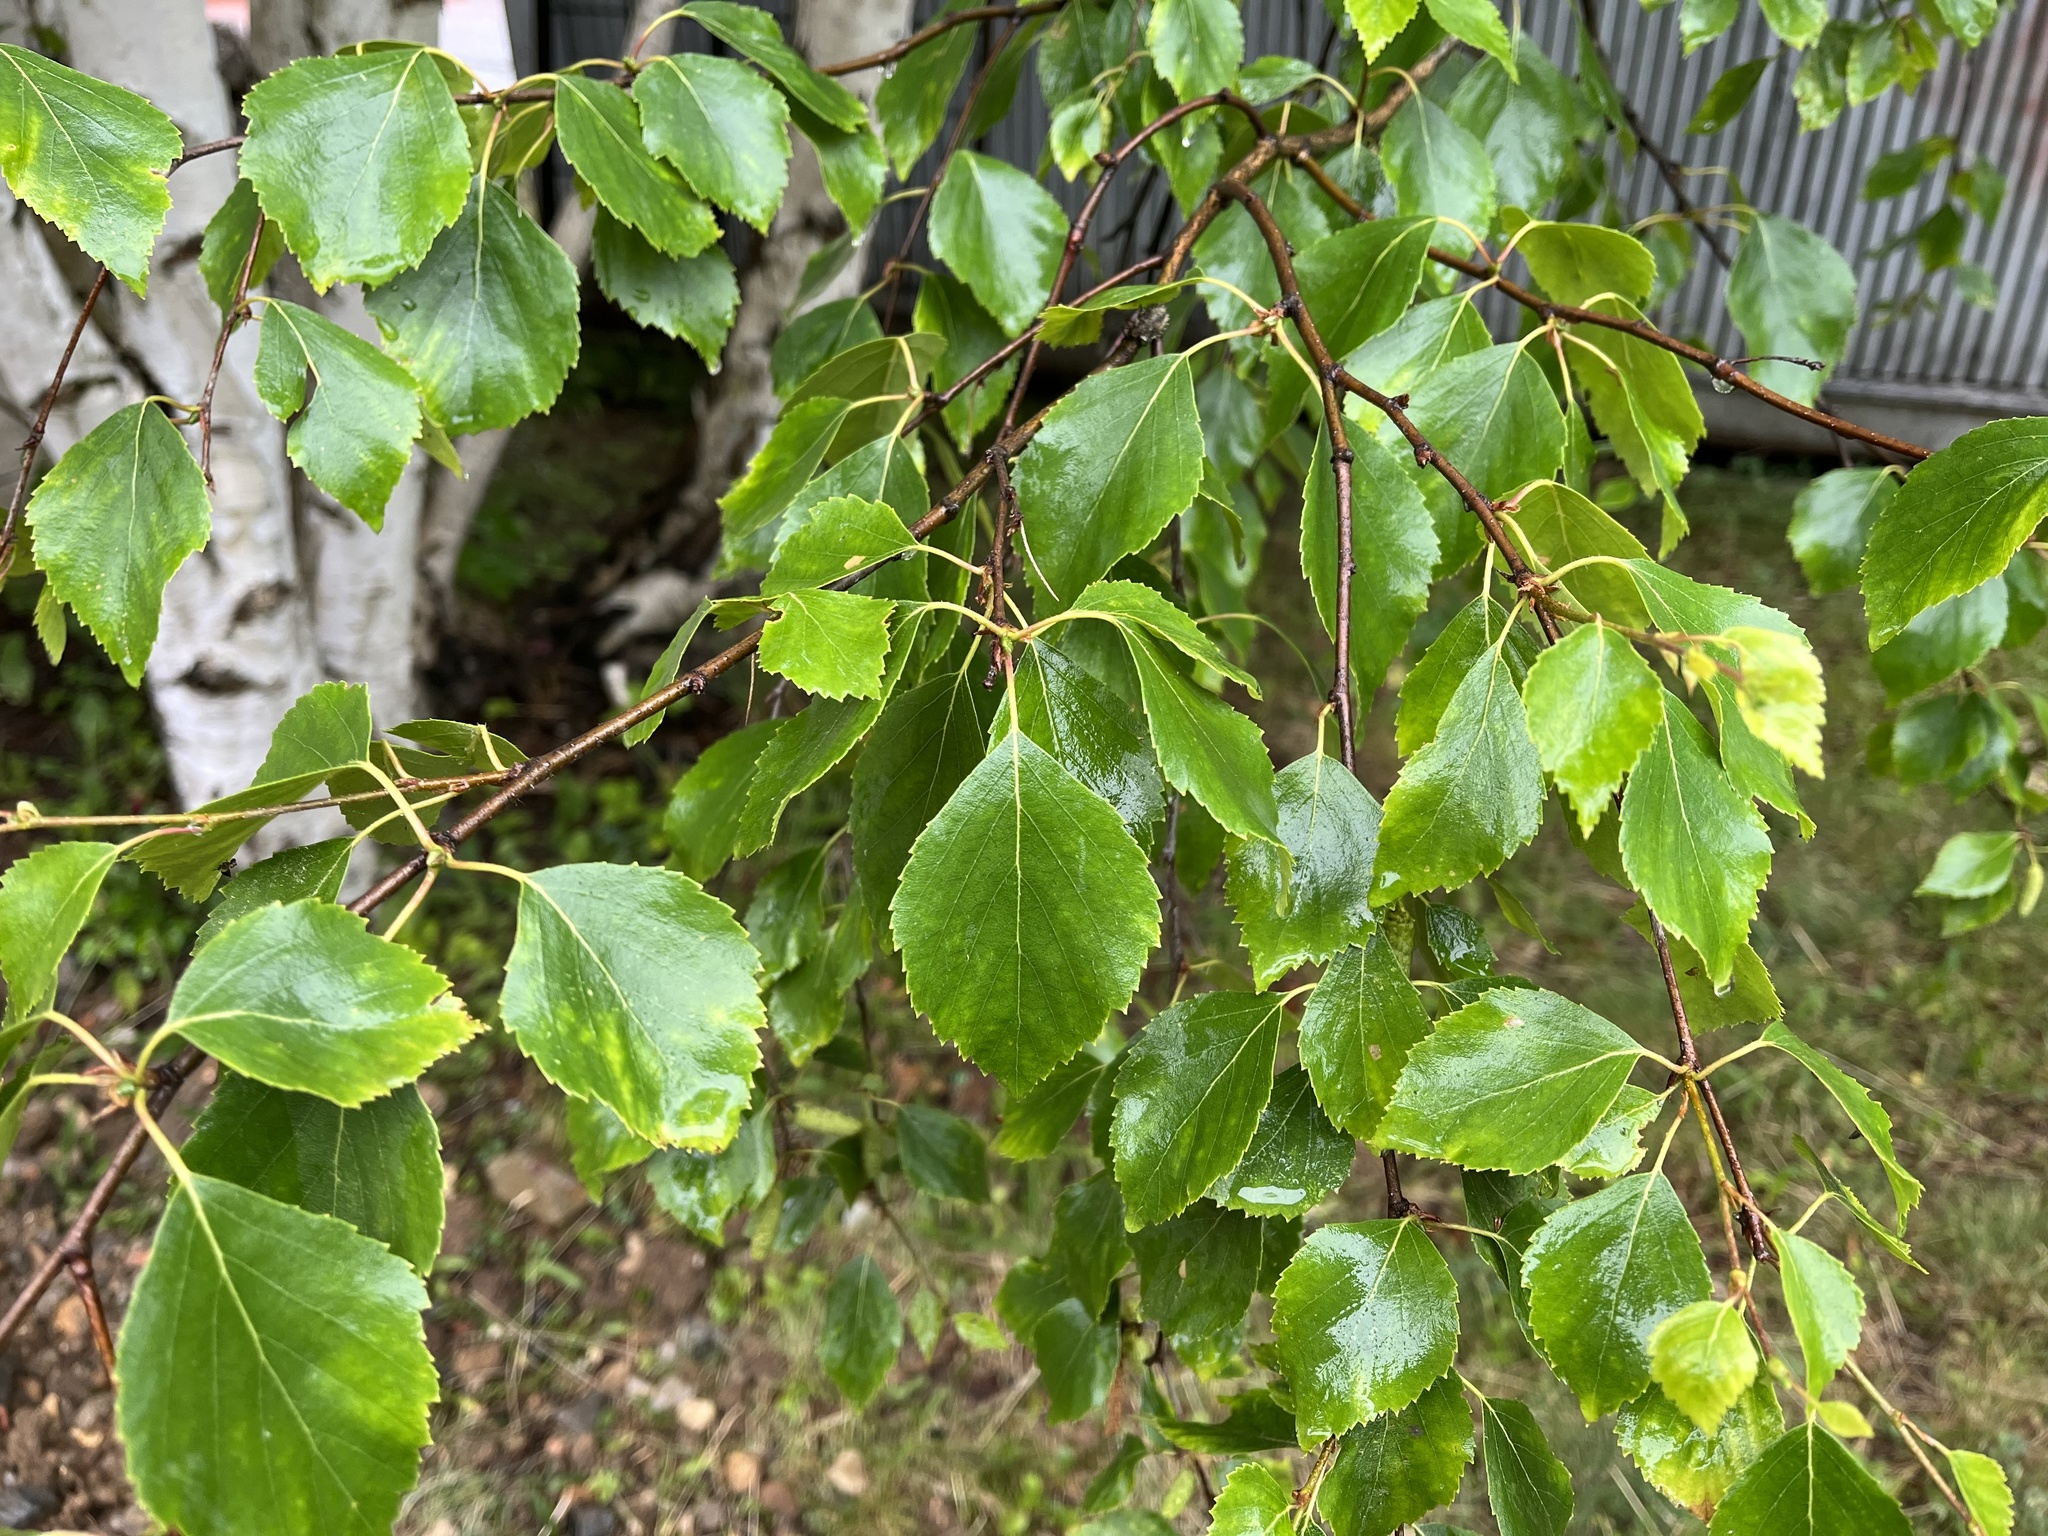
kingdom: Plantae
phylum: Tracheophyta
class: Magnoliopsida
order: Fagales
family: Betulaceae
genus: Betula
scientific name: Betula pendula
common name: Silver birch
